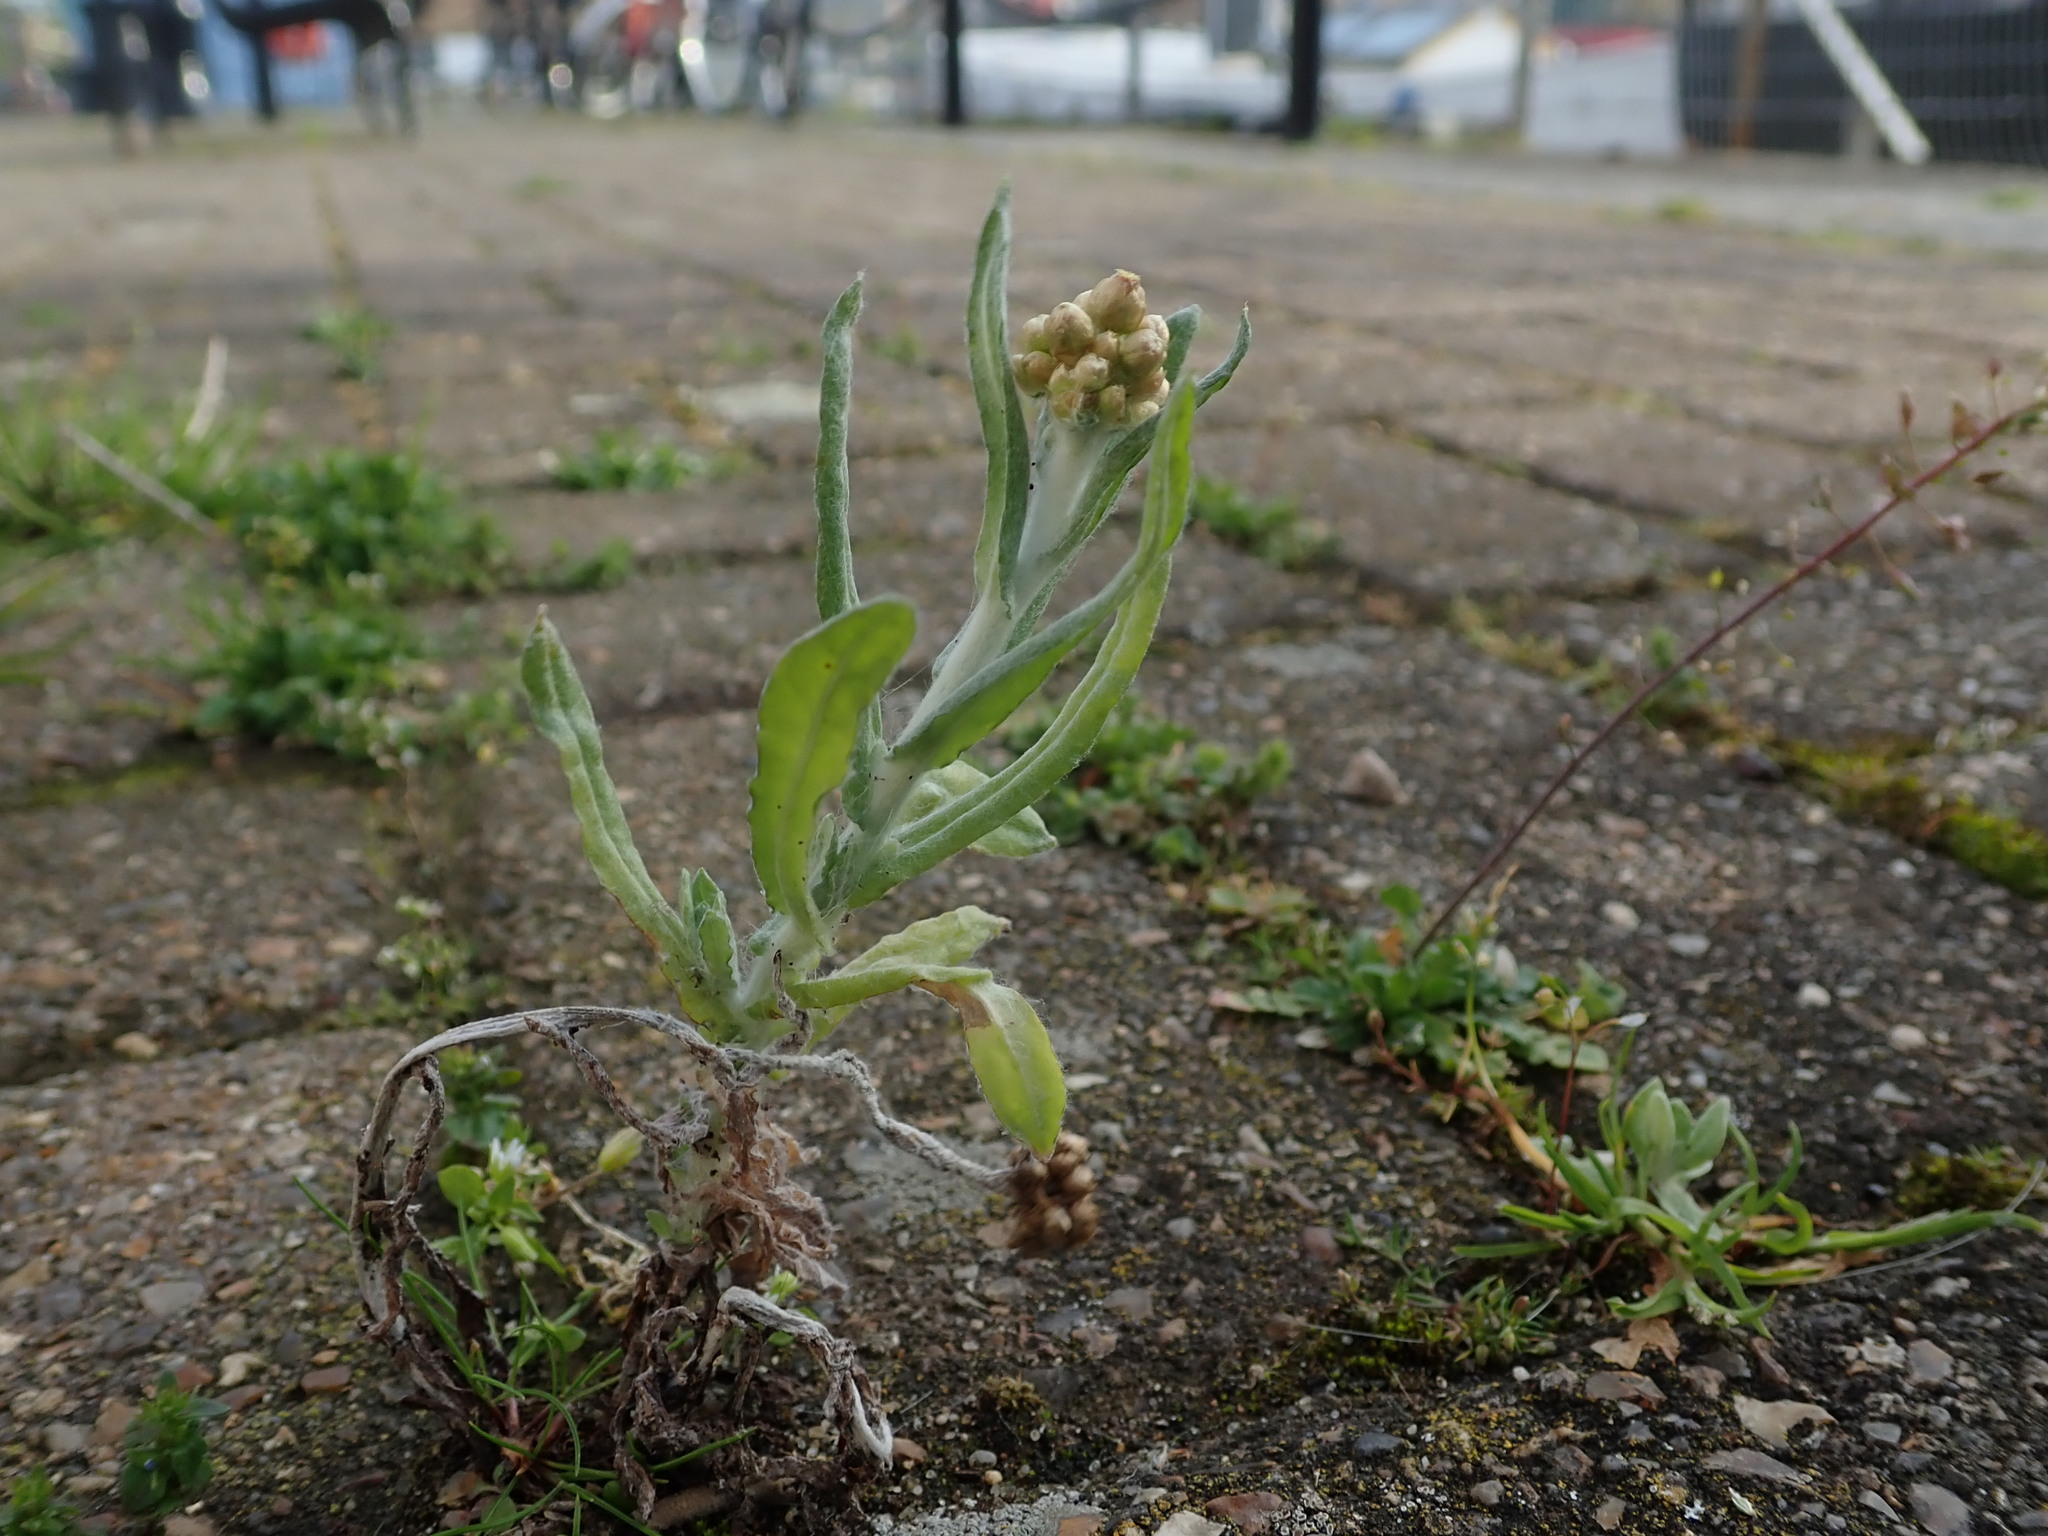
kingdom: Plantae
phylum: Tracheophyta
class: Magnoliopsida
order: Asterales
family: Asteraceae
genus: Helichrysum
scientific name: Helichrysum luteoalbum
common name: Daisy
